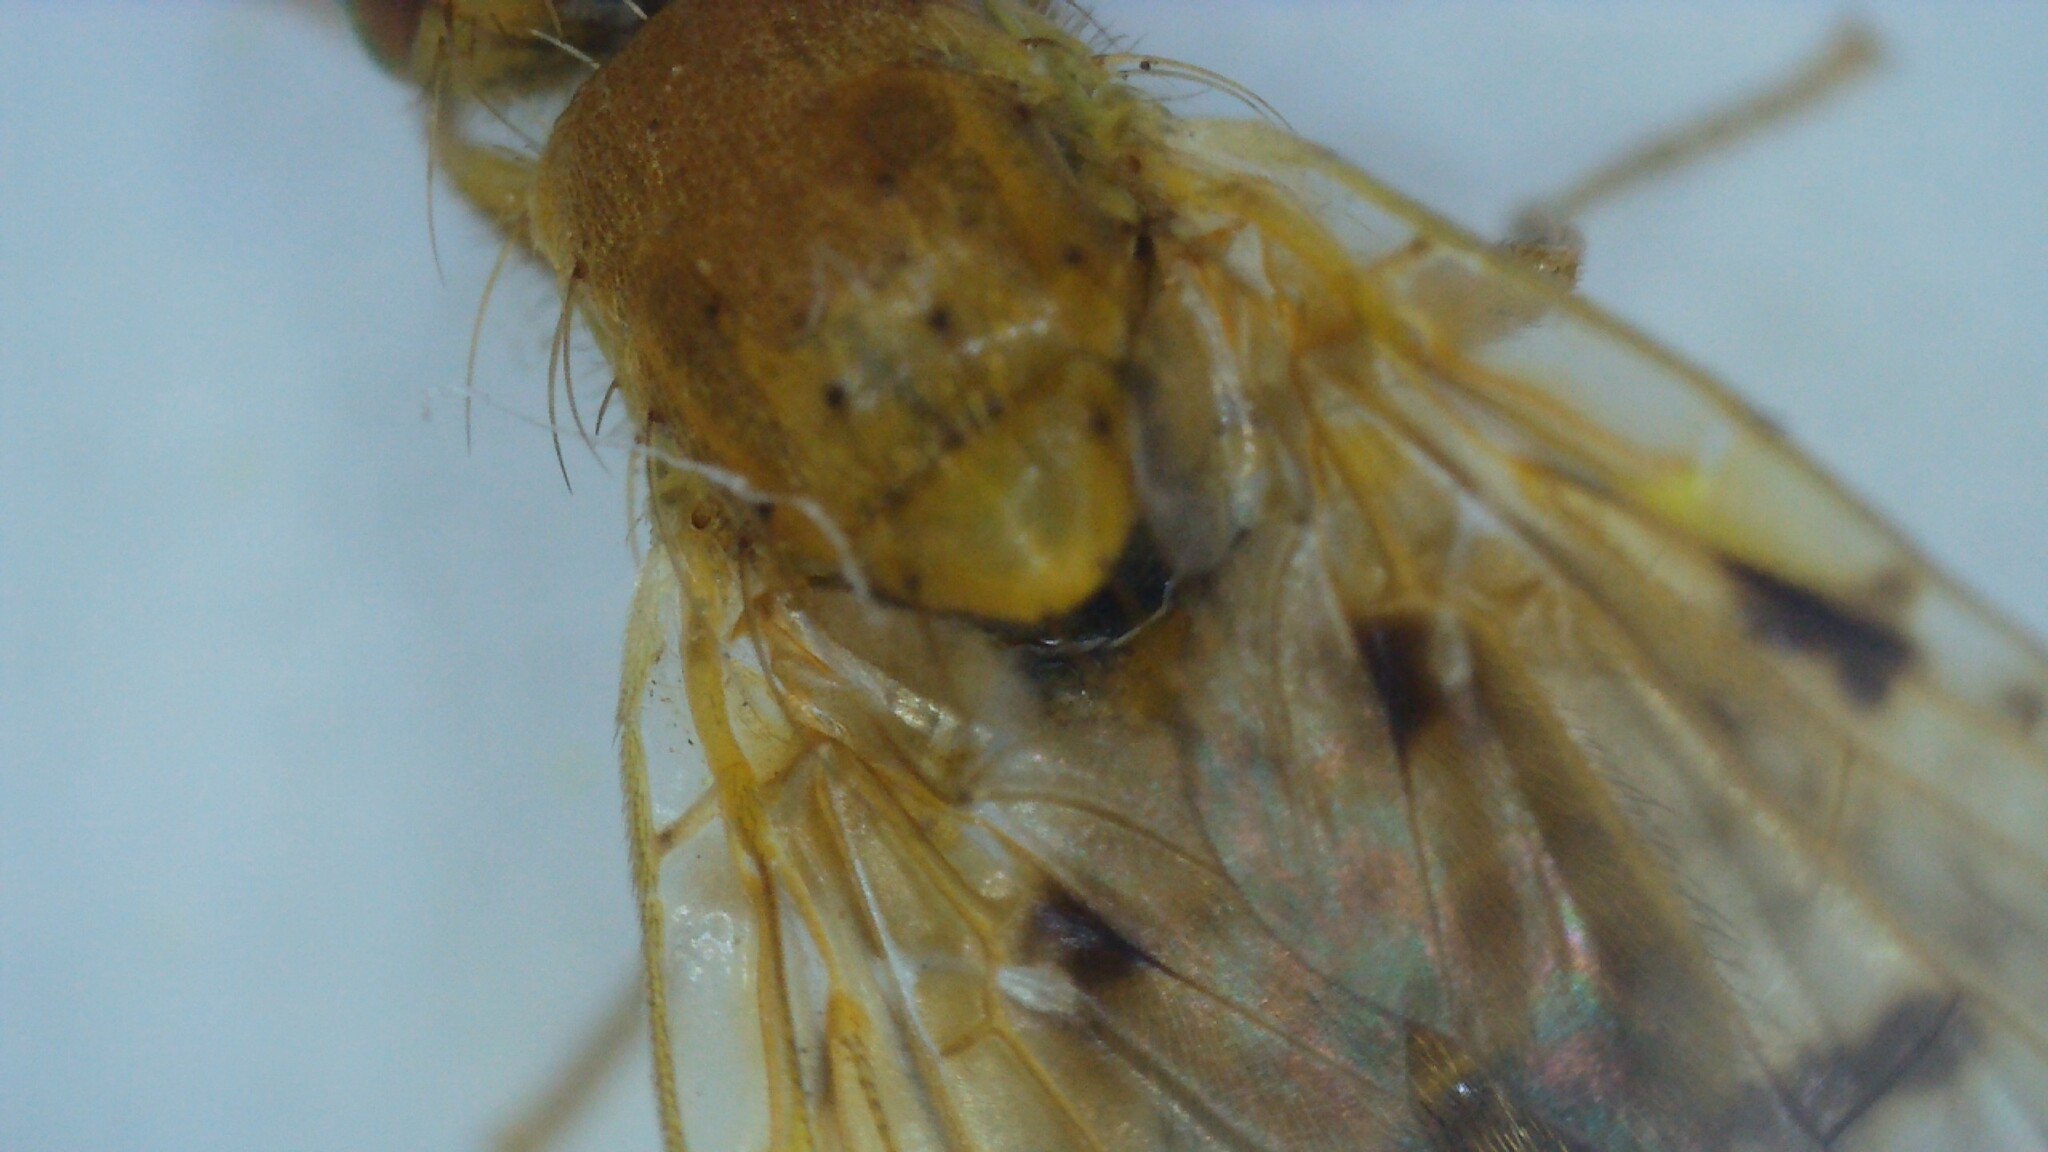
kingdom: Animalia
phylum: Arthropoda
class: Insecta
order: Diptera
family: Tephritidae
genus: Xyphosia
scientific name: Xyphosia miliaria
